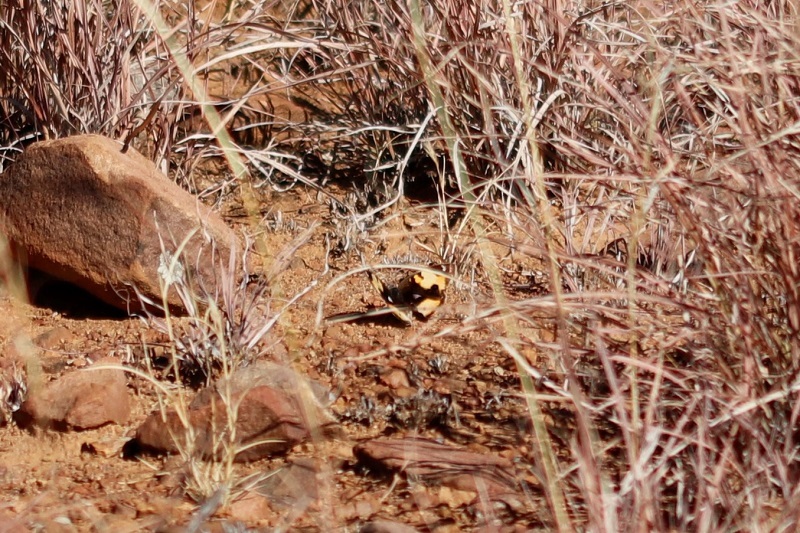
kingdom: Animalia
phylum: Arthropoda
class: Insecta
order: Lepidoptera
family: Nymphalidae
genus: Junonia
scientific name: Junonia hierta
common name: Yellow pansy
